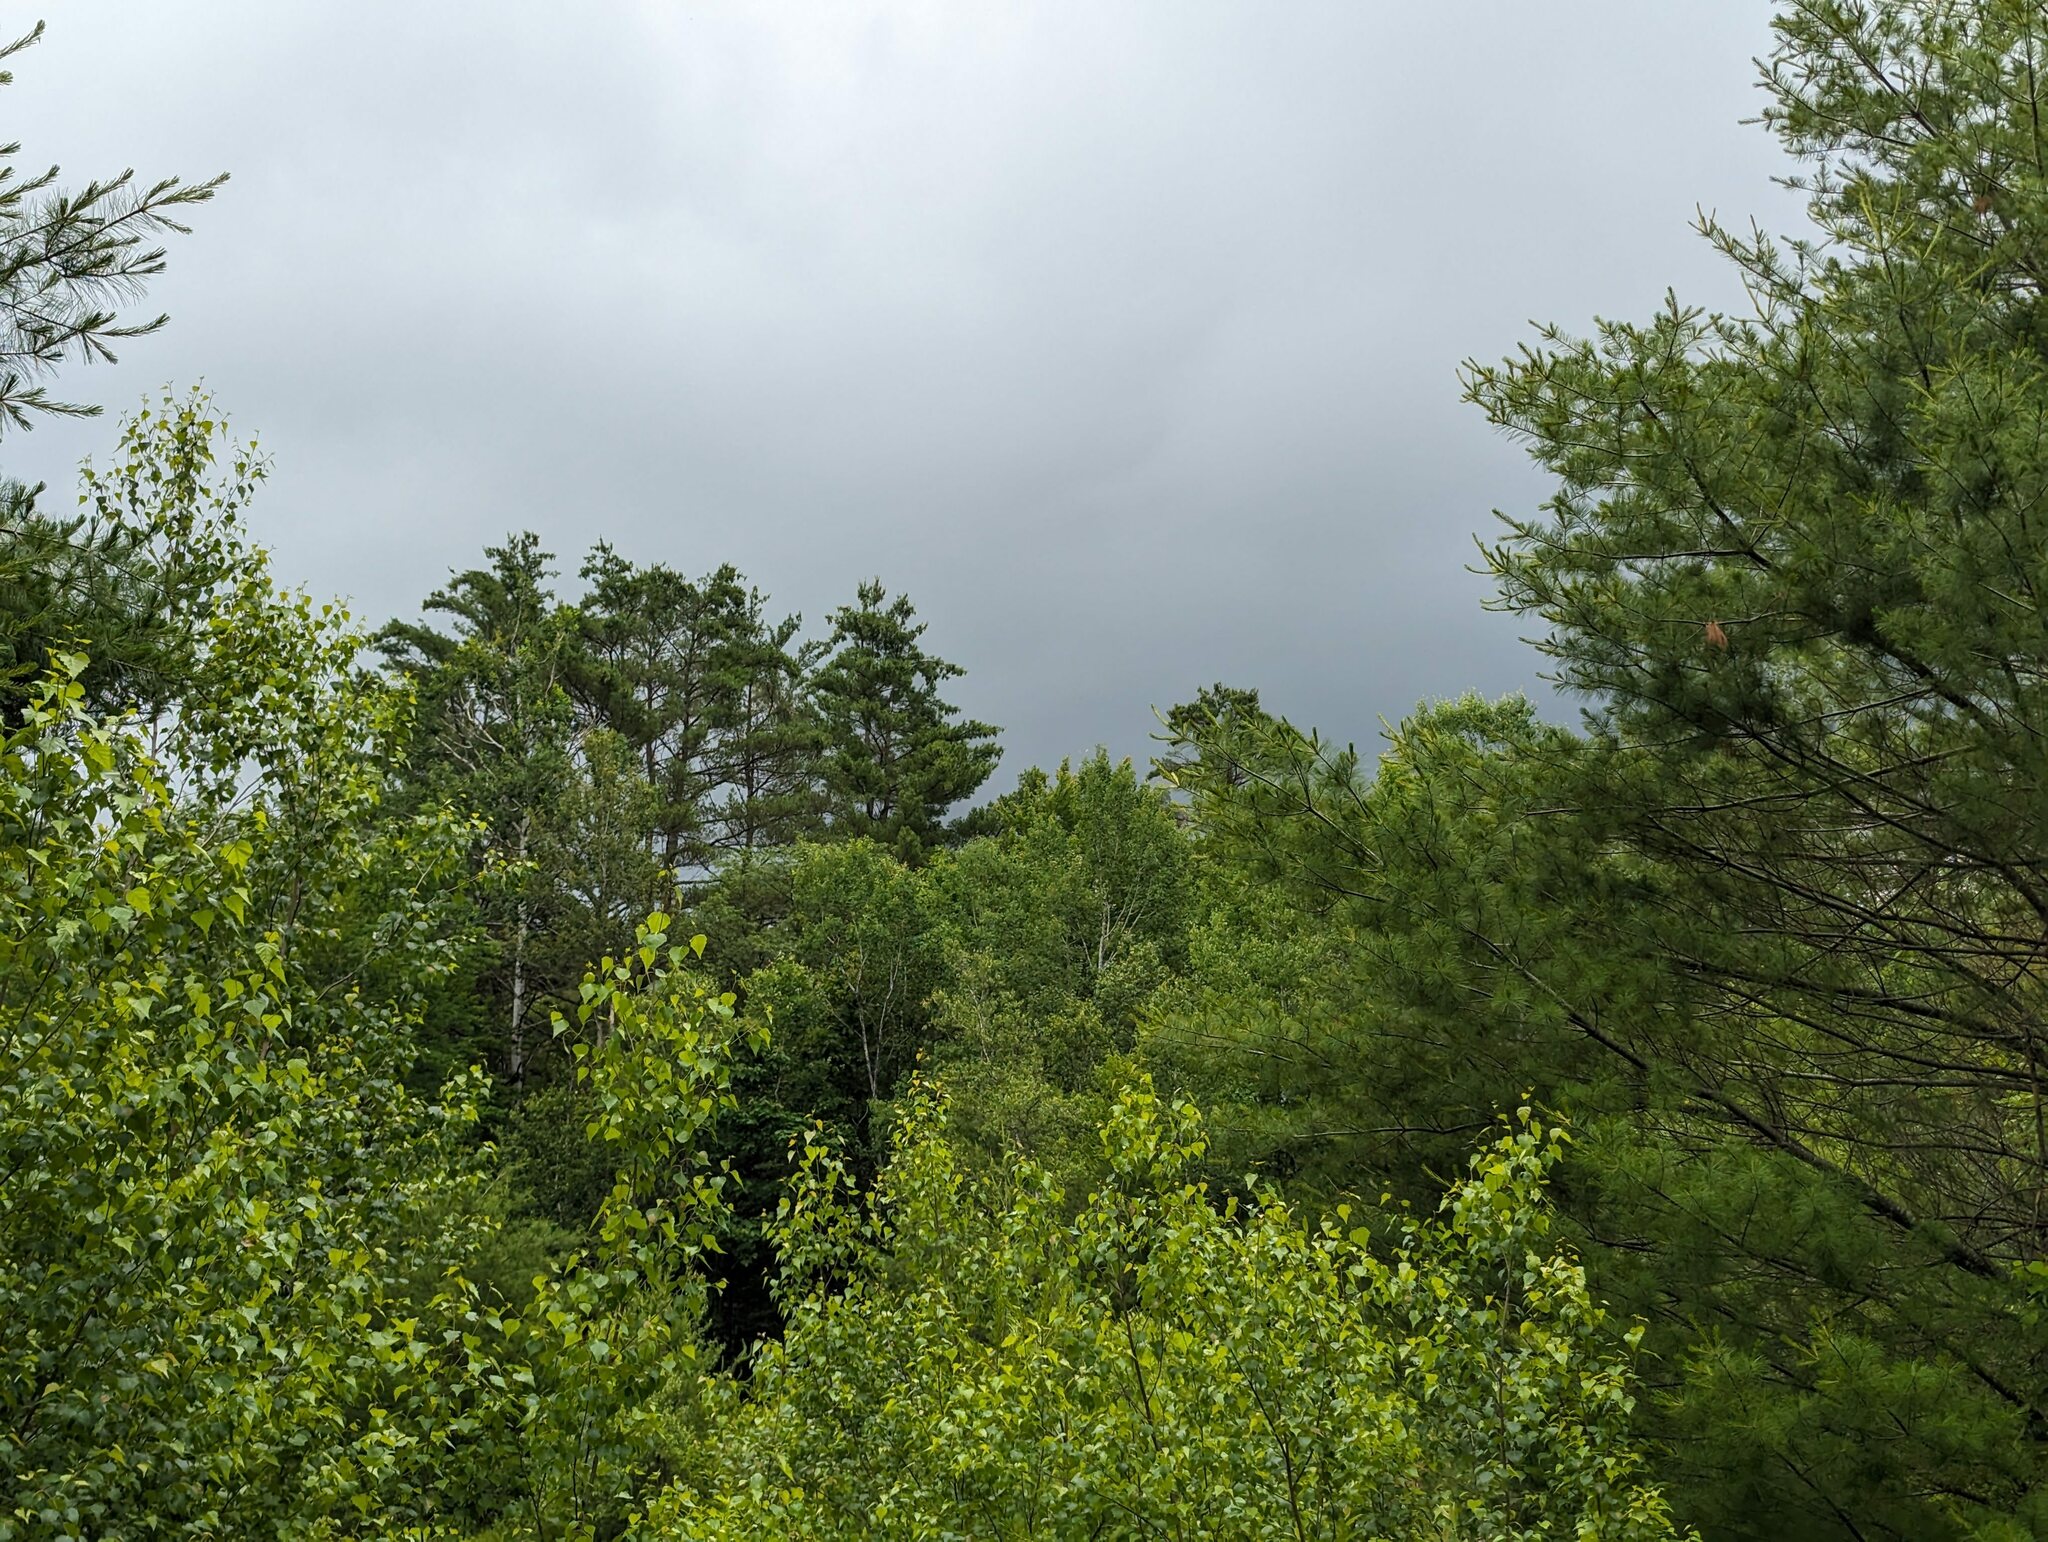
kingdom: Plantae
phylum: Tracheophyta
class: Pinopsida
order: Pinales
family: Pinaceae
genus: Pinus
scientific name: Pinus strobus
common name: Weymouth pine
